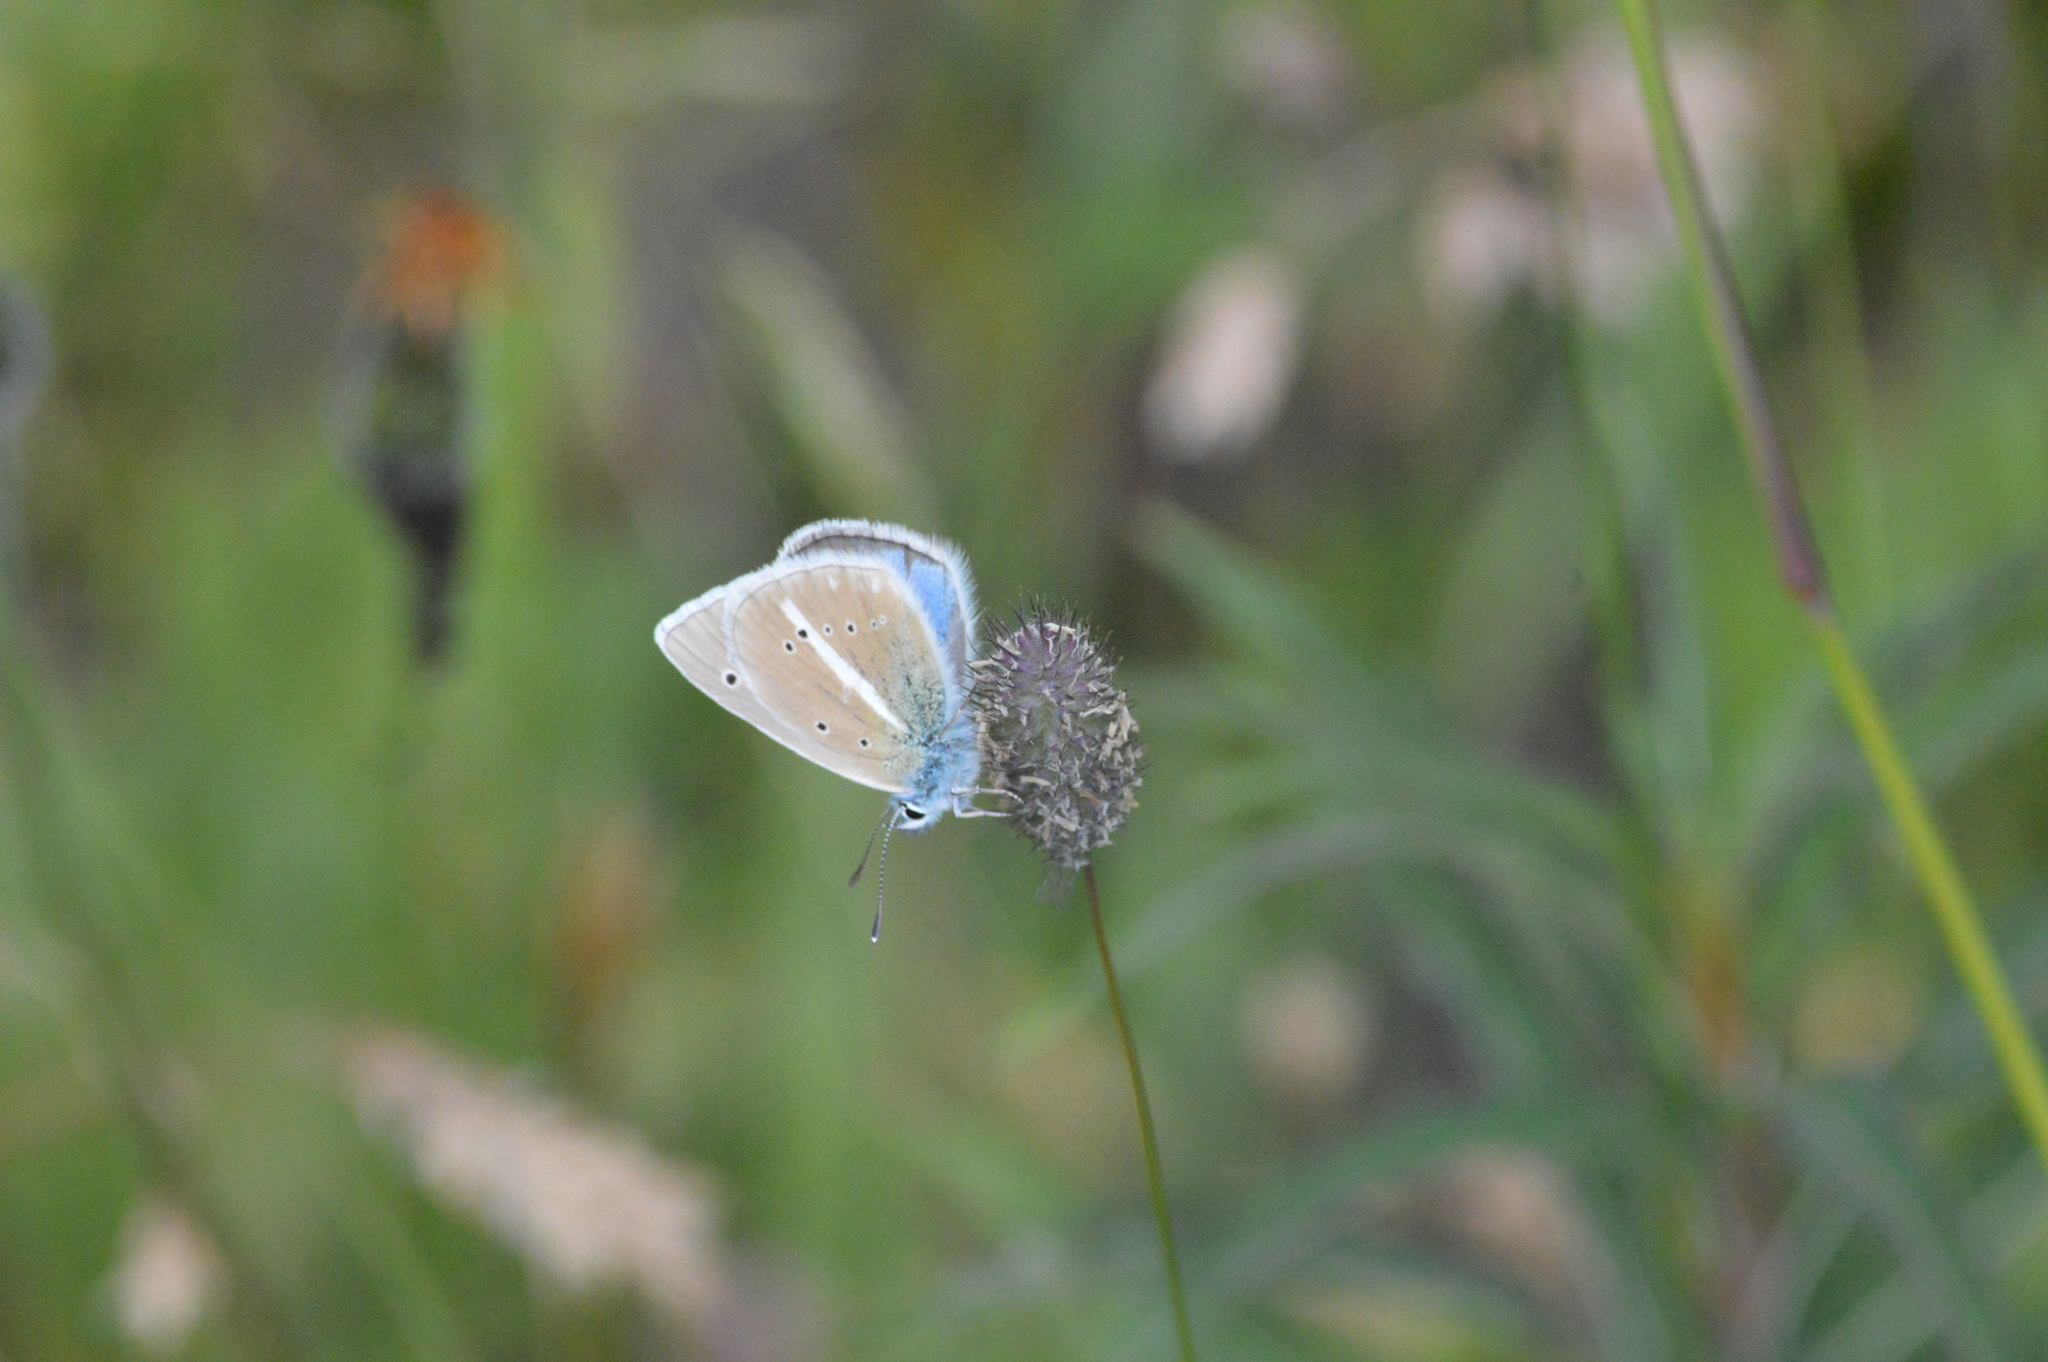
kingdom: Animalia
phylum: Arthropoda
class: Insecta
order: Lepidoptera
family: Lycaenidae
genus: Agrodiaetus
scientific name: Agrodiaetus damon
